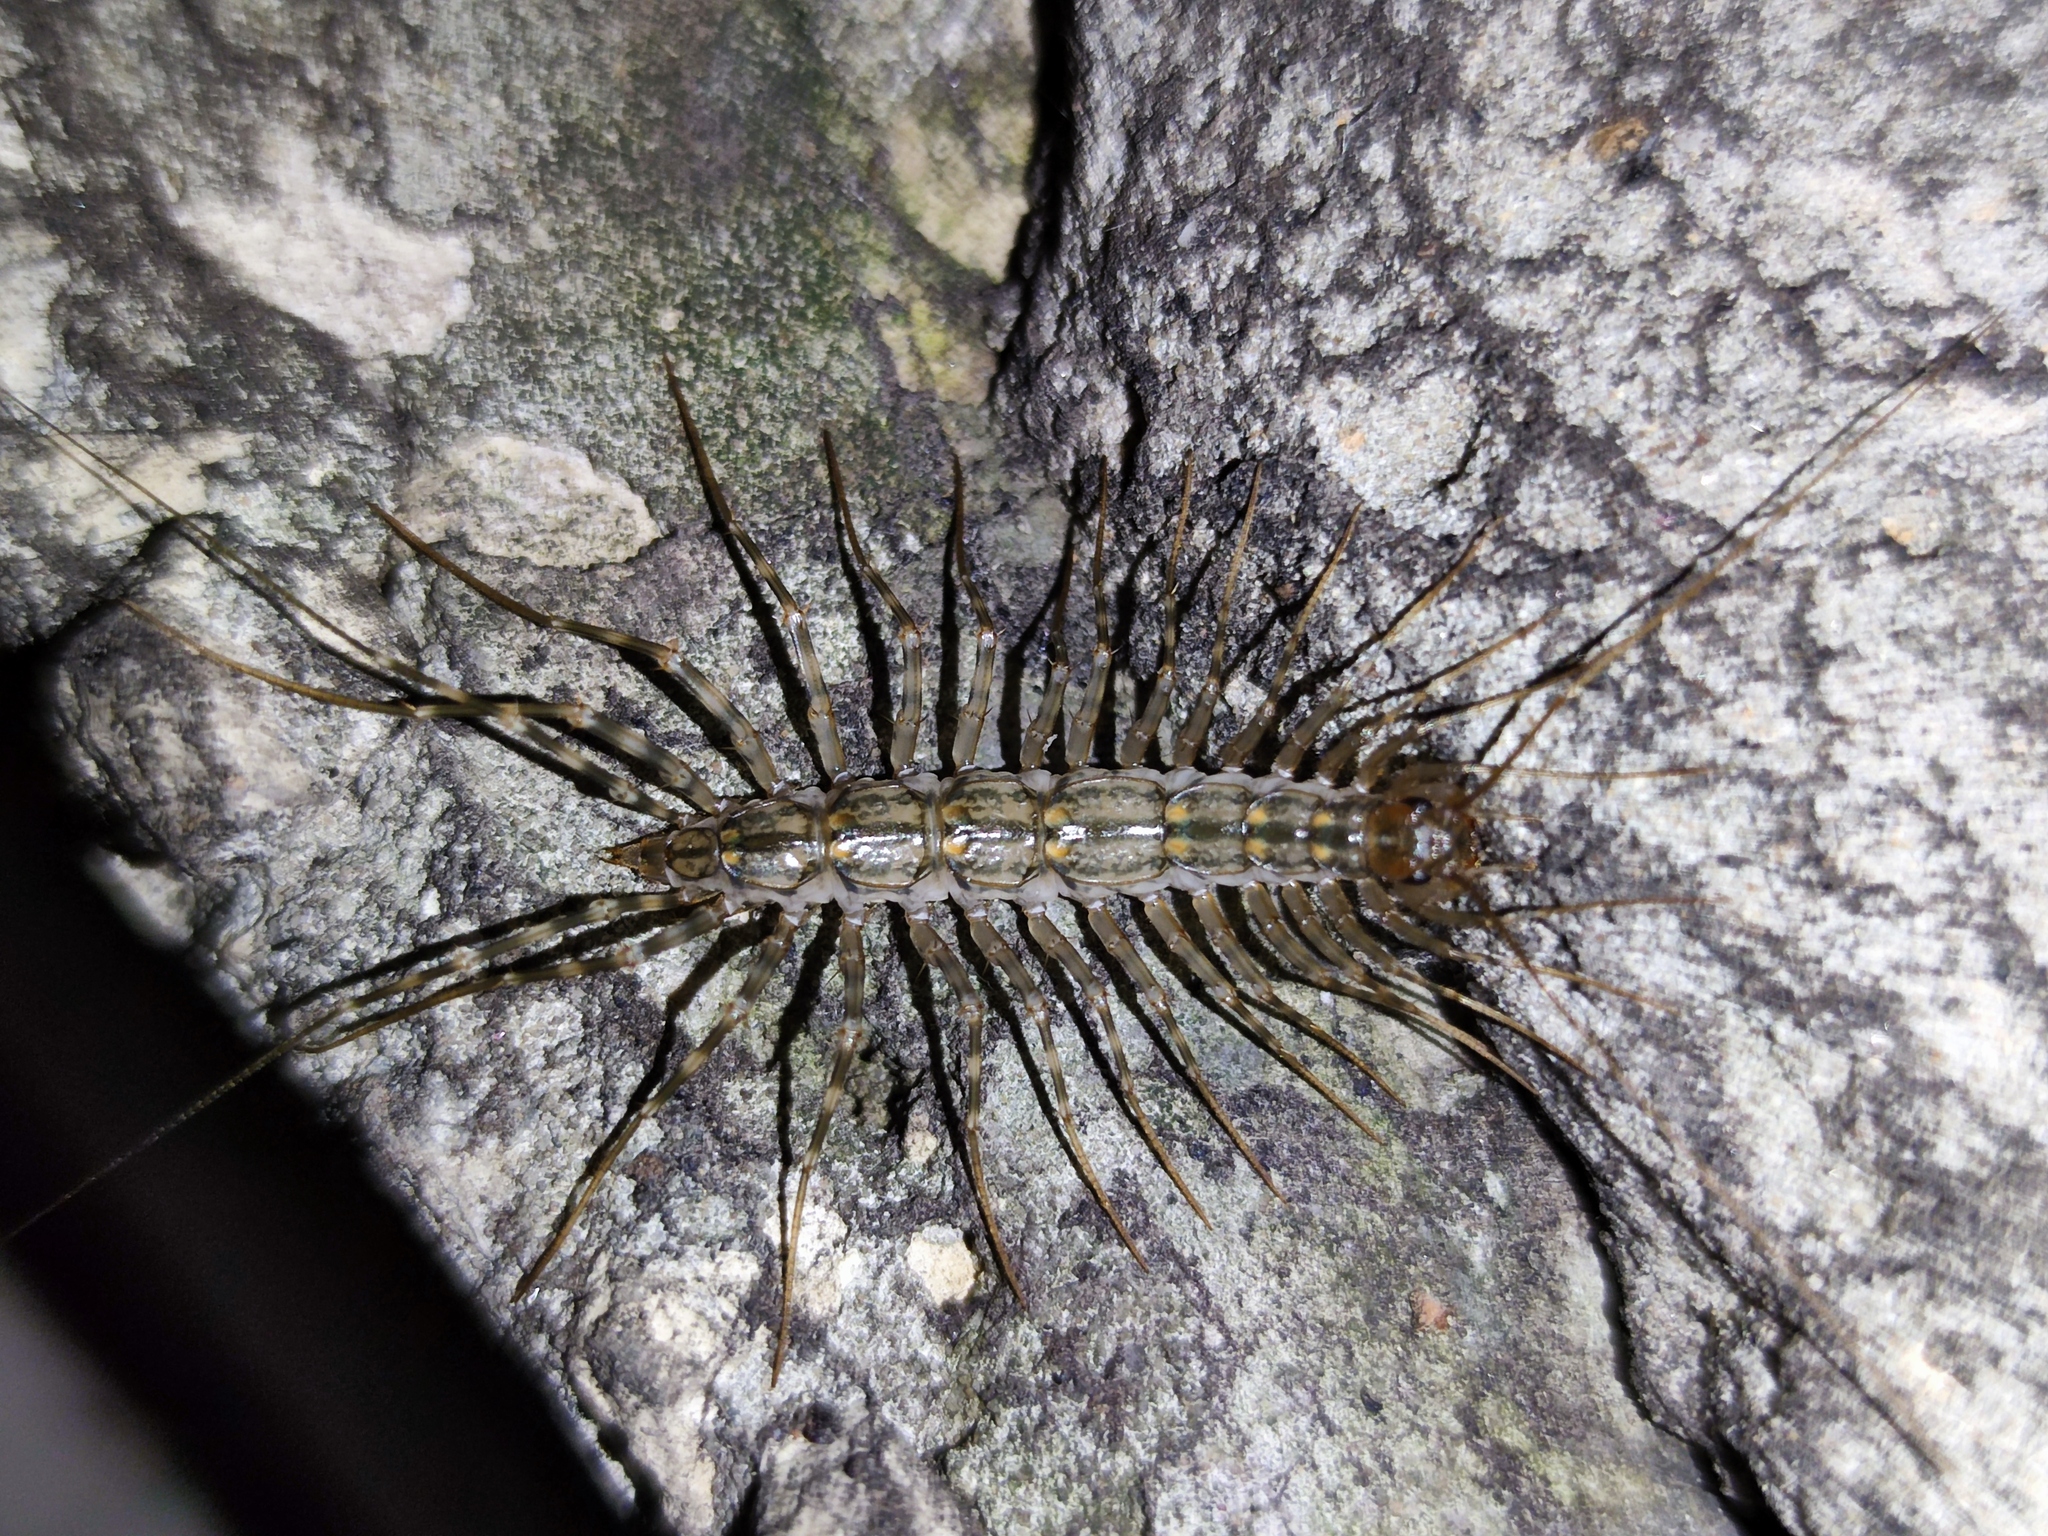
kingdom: Animalia
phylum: Arthropoda
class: Chilopoda
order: Scutigeromorpha
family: Scutigeridae
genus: Scutigera
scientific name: Scutigera coleoptrata
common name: House centipede
